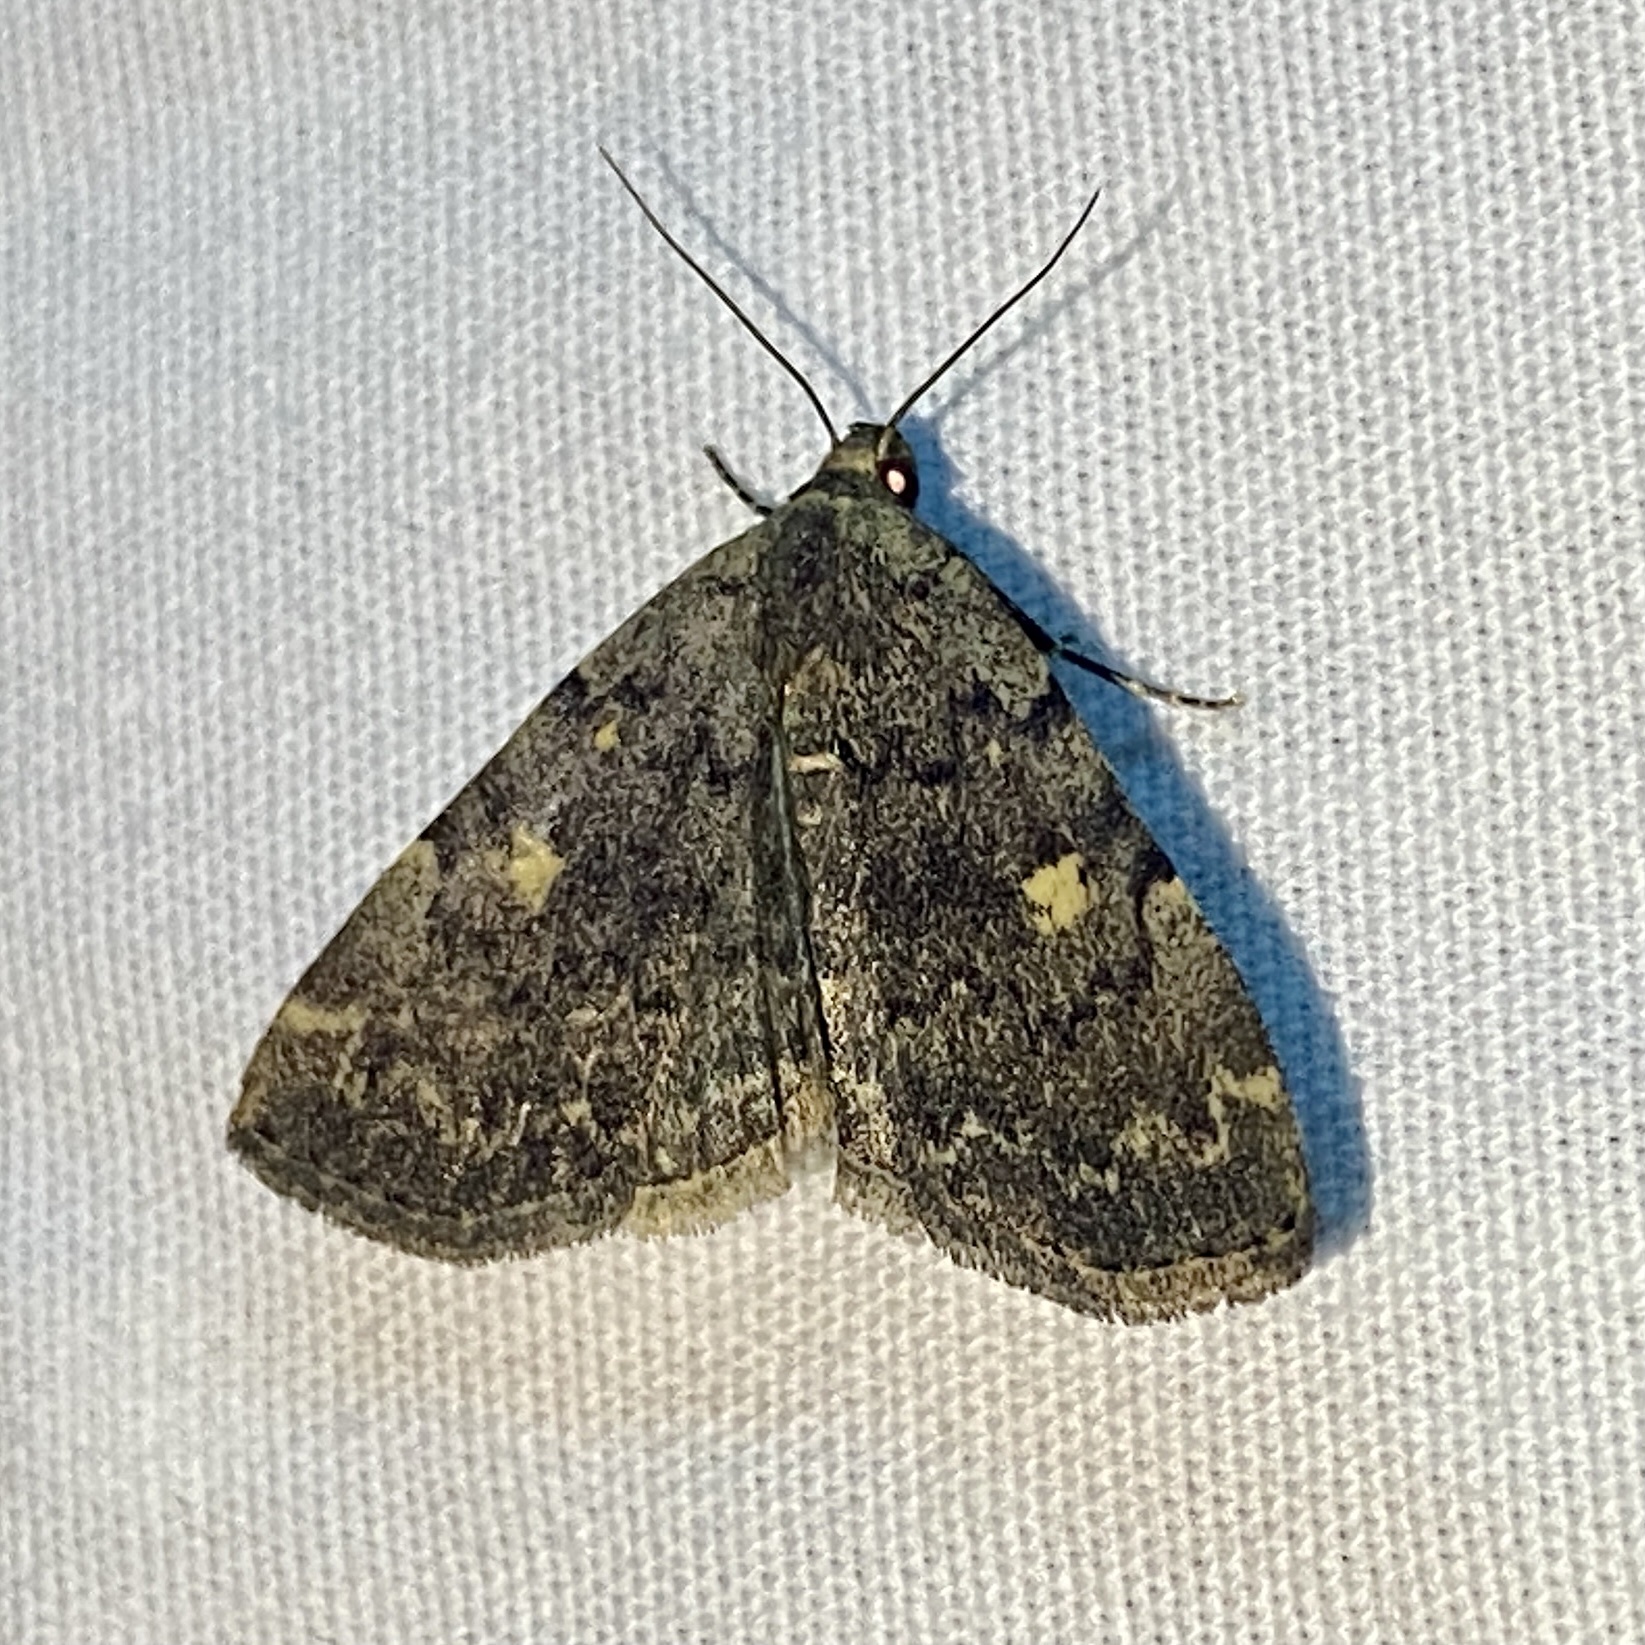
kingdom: Animalia
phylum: Arthropoda
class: Insecta
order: Lepidoptera
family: Erebidae
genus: Idia
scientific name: Idia aemula
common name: Common idia moth
